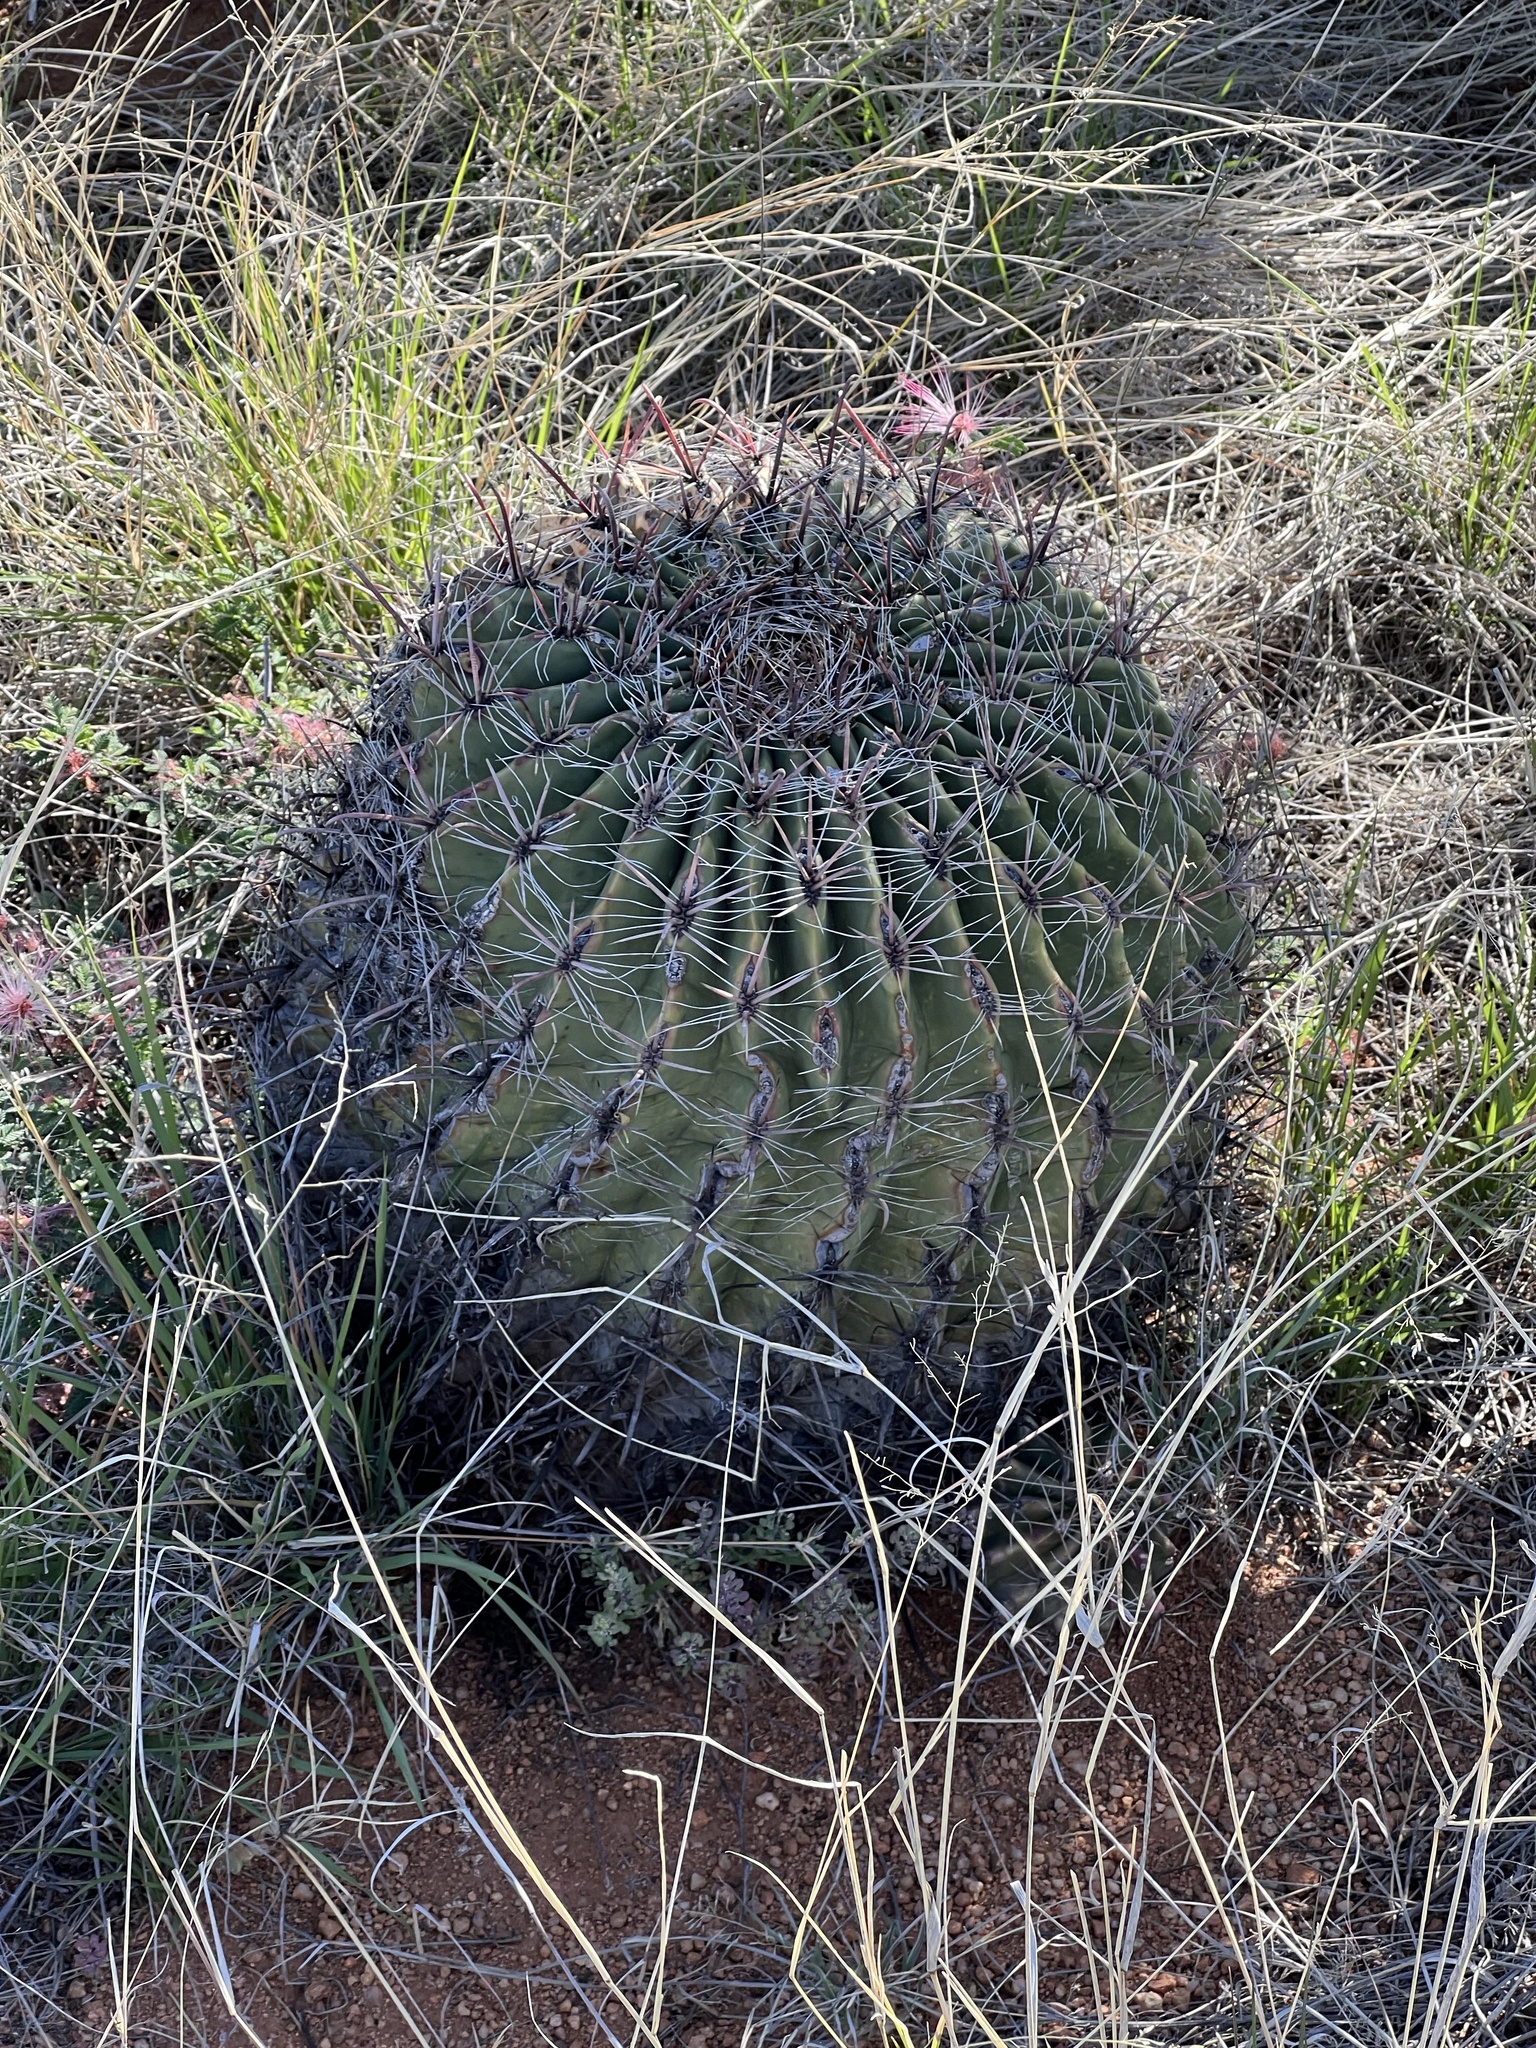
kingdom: Plantae
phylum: Tracheophyta
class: Magnoliopsida
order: Caryophyllales
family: Cactaceae
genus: Ferocactus
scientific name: Ferocactus wislizeni
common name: Candy barrel cactus
